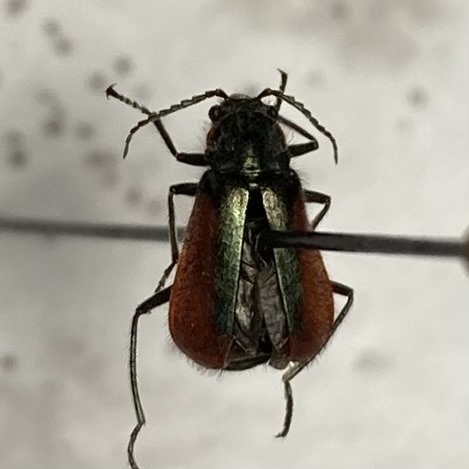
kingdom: Animalia
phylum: Arthropoda
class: Insecta
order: Coleoptera
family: Melyridae
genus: Malachius
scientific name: Malachius aeneus
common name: Scarlet malachite beetle
